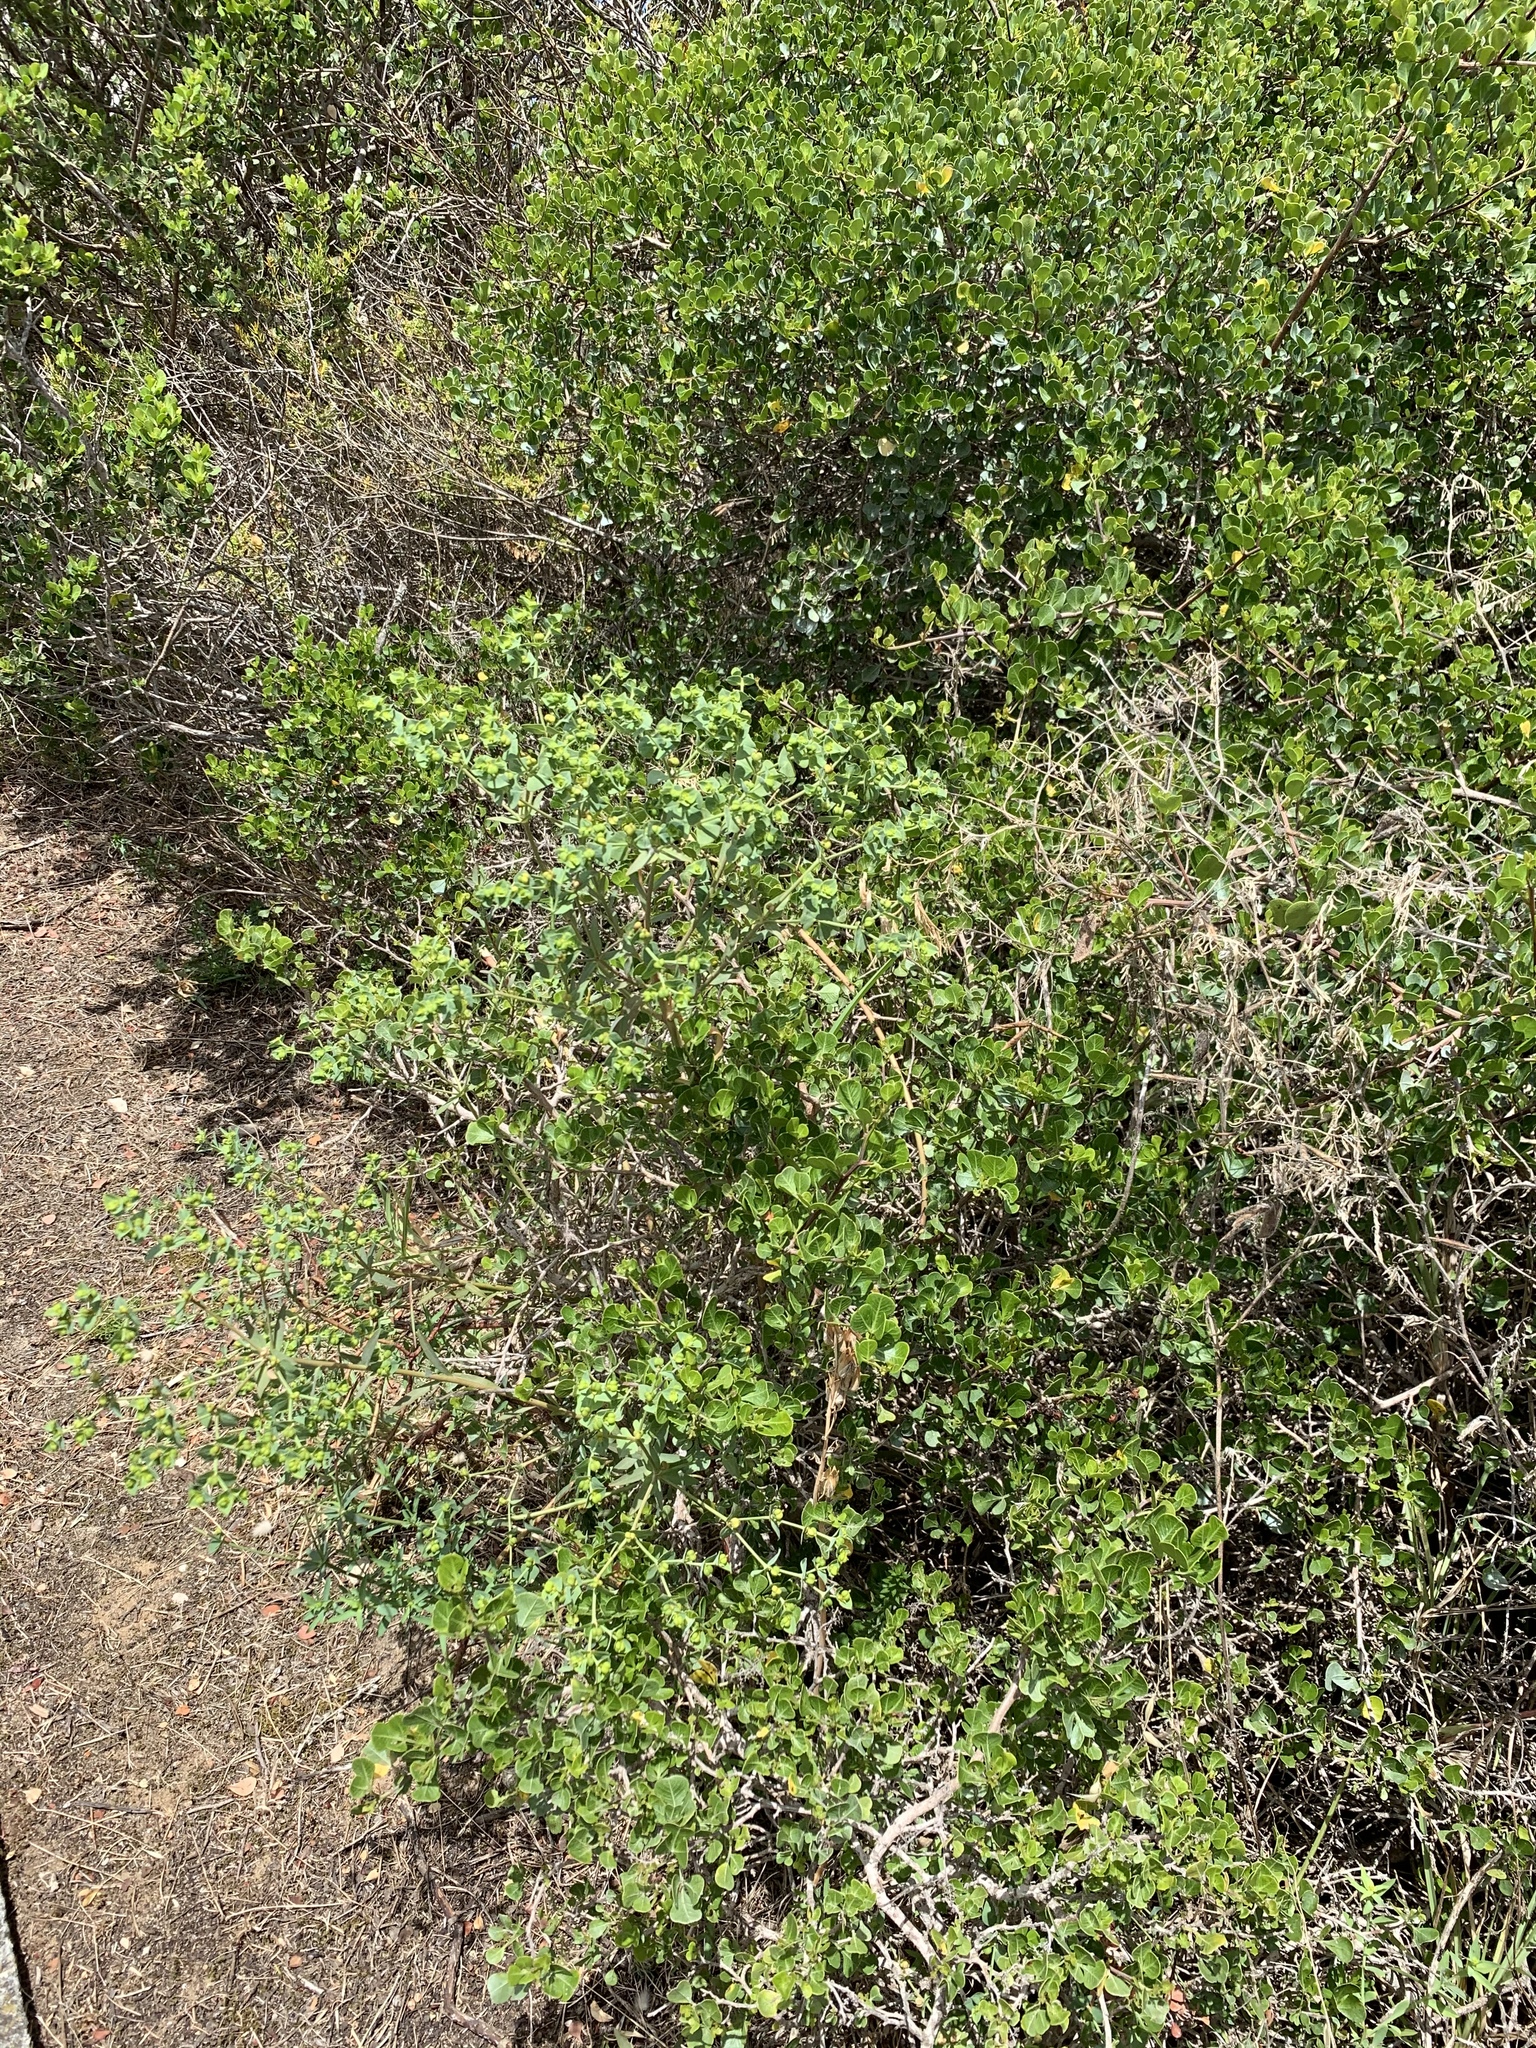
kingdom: Plantae
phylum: Tracheophyta
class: Magnoliopsida
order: Malpighiales
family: Euphorbiaceae
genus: Euphorbia
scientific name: Euphorbia terracina
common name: Geraldton carnation weed
